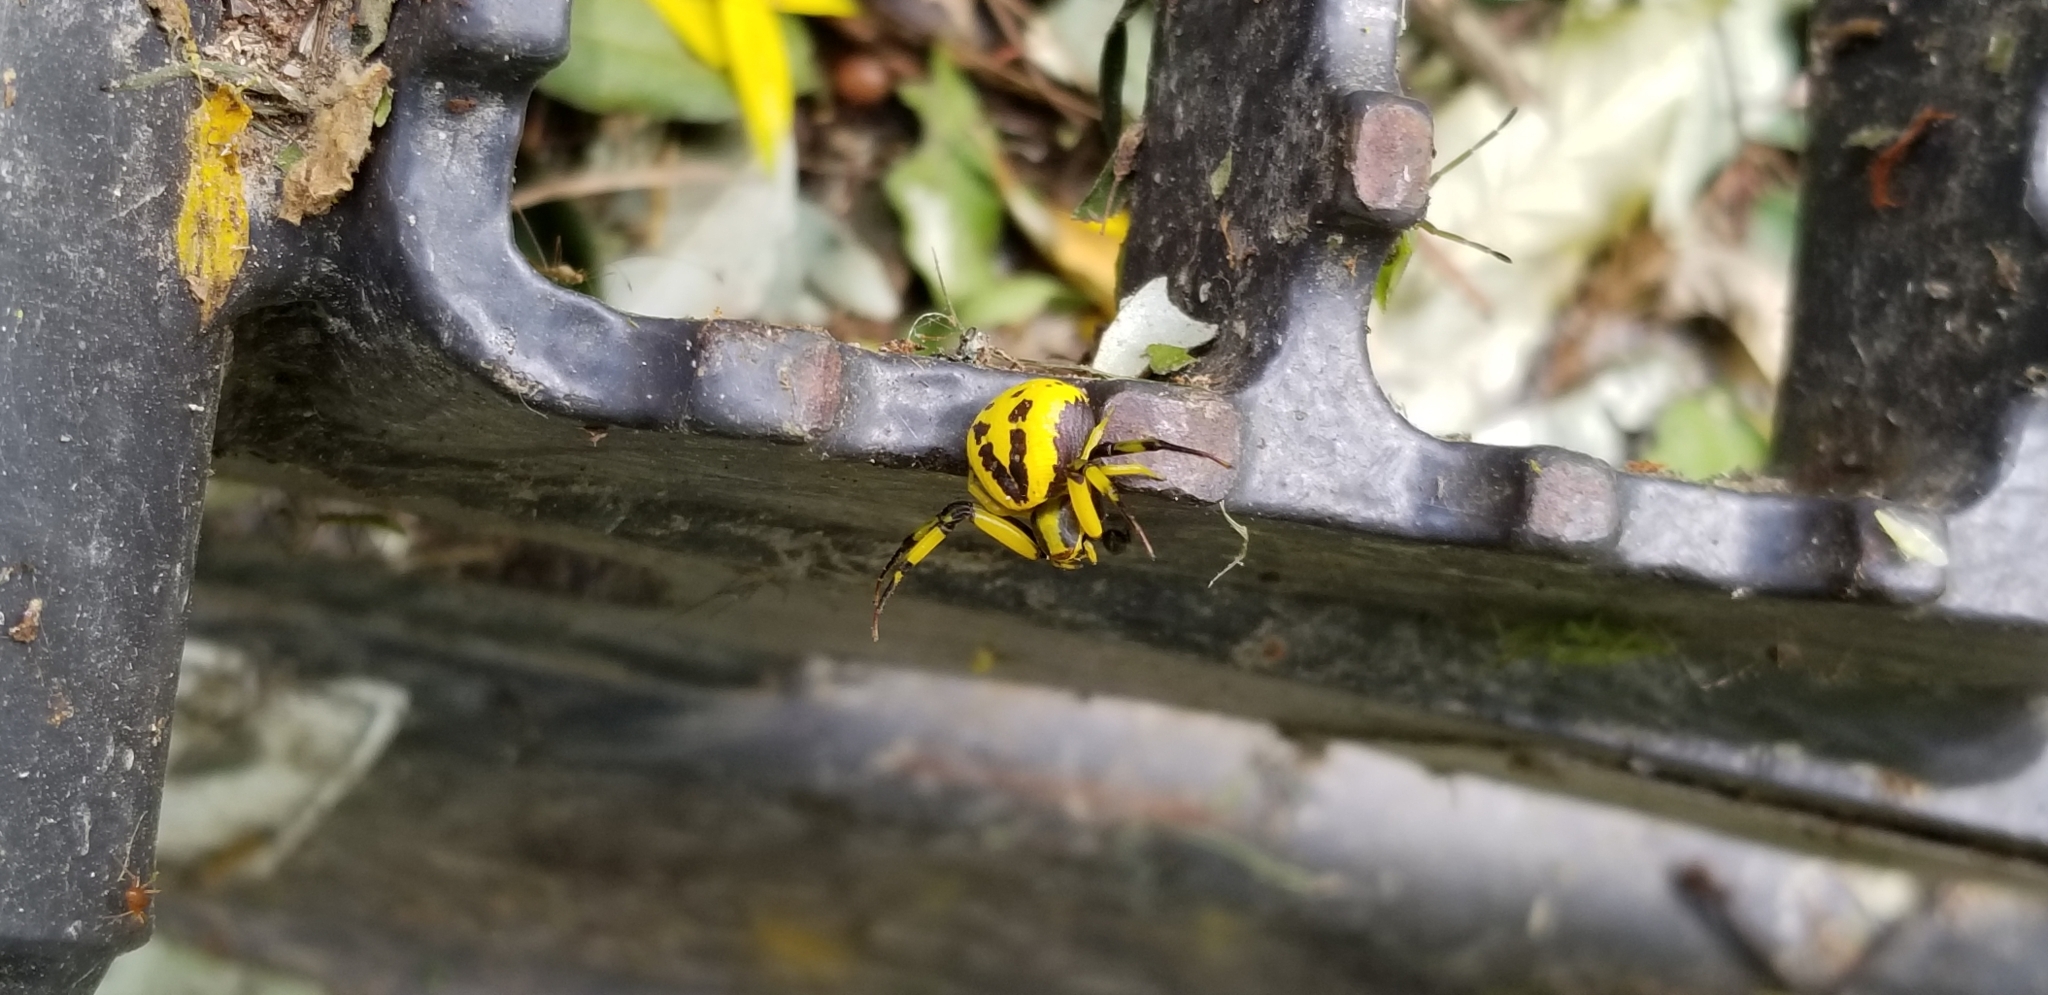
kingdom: Animalia
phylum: Arthropoda
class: Arachnida
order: Araneae
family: Thomisidae
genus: Misumenoides
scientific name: Misumenoides formosipes
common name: White-banded crab spider
